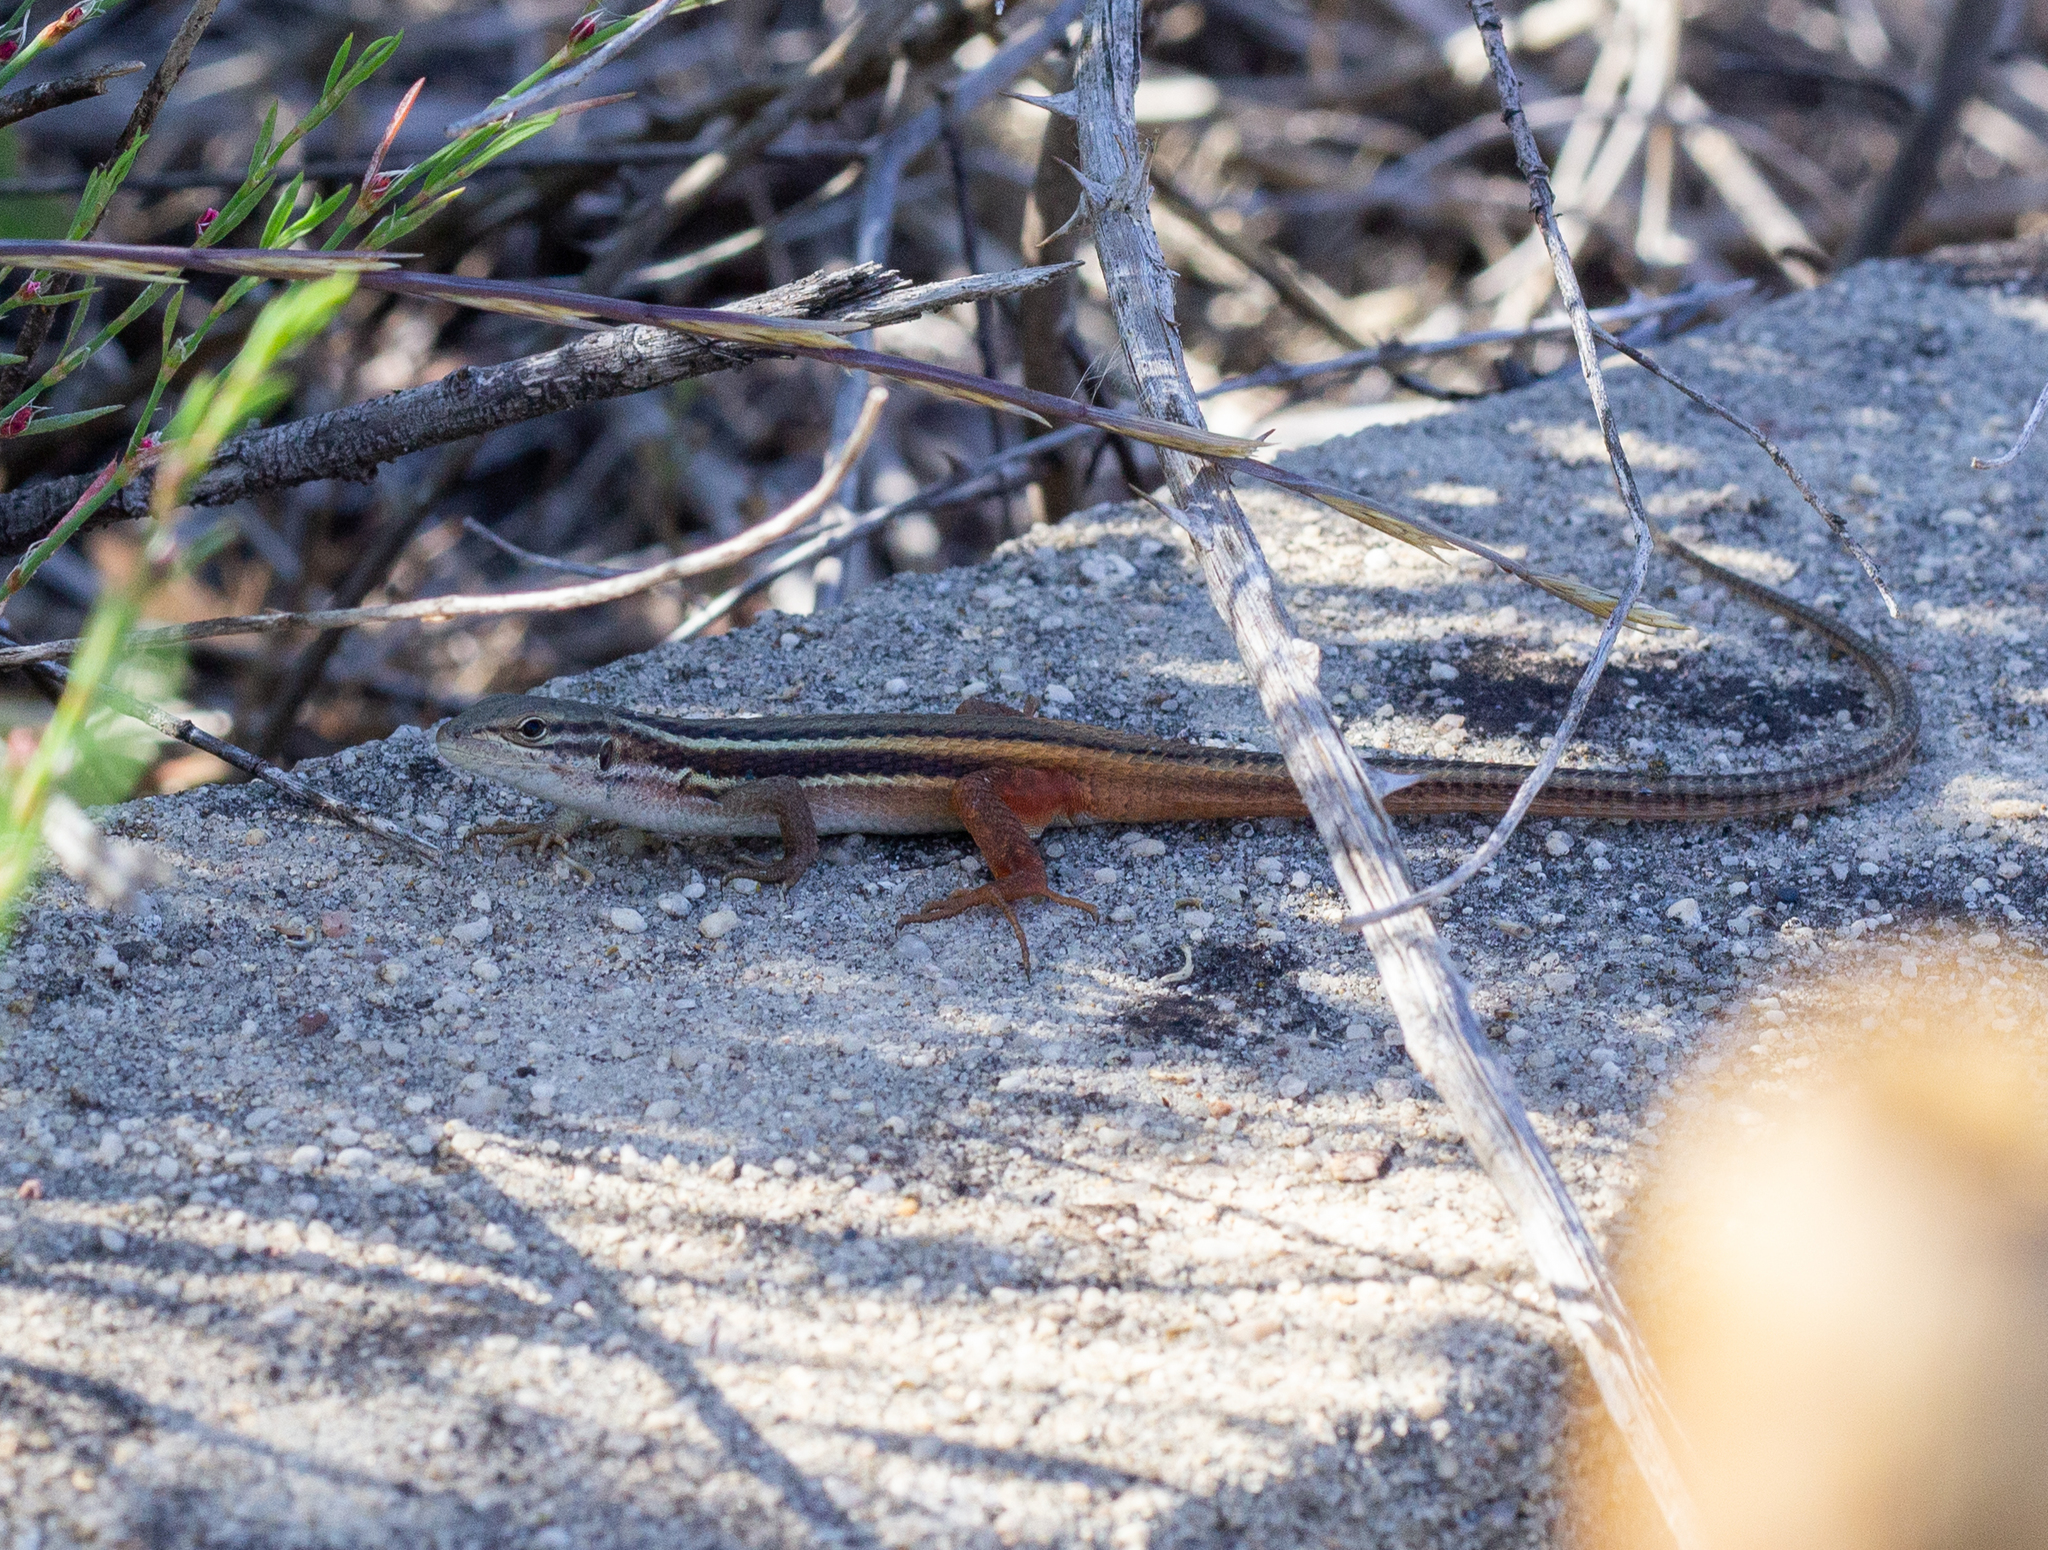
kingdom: Animalia
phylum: Chordata
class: Squamata
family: Lacertidae
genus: Psammodromus
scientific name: Psammodromus algirus
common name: Algerian psammodromus
